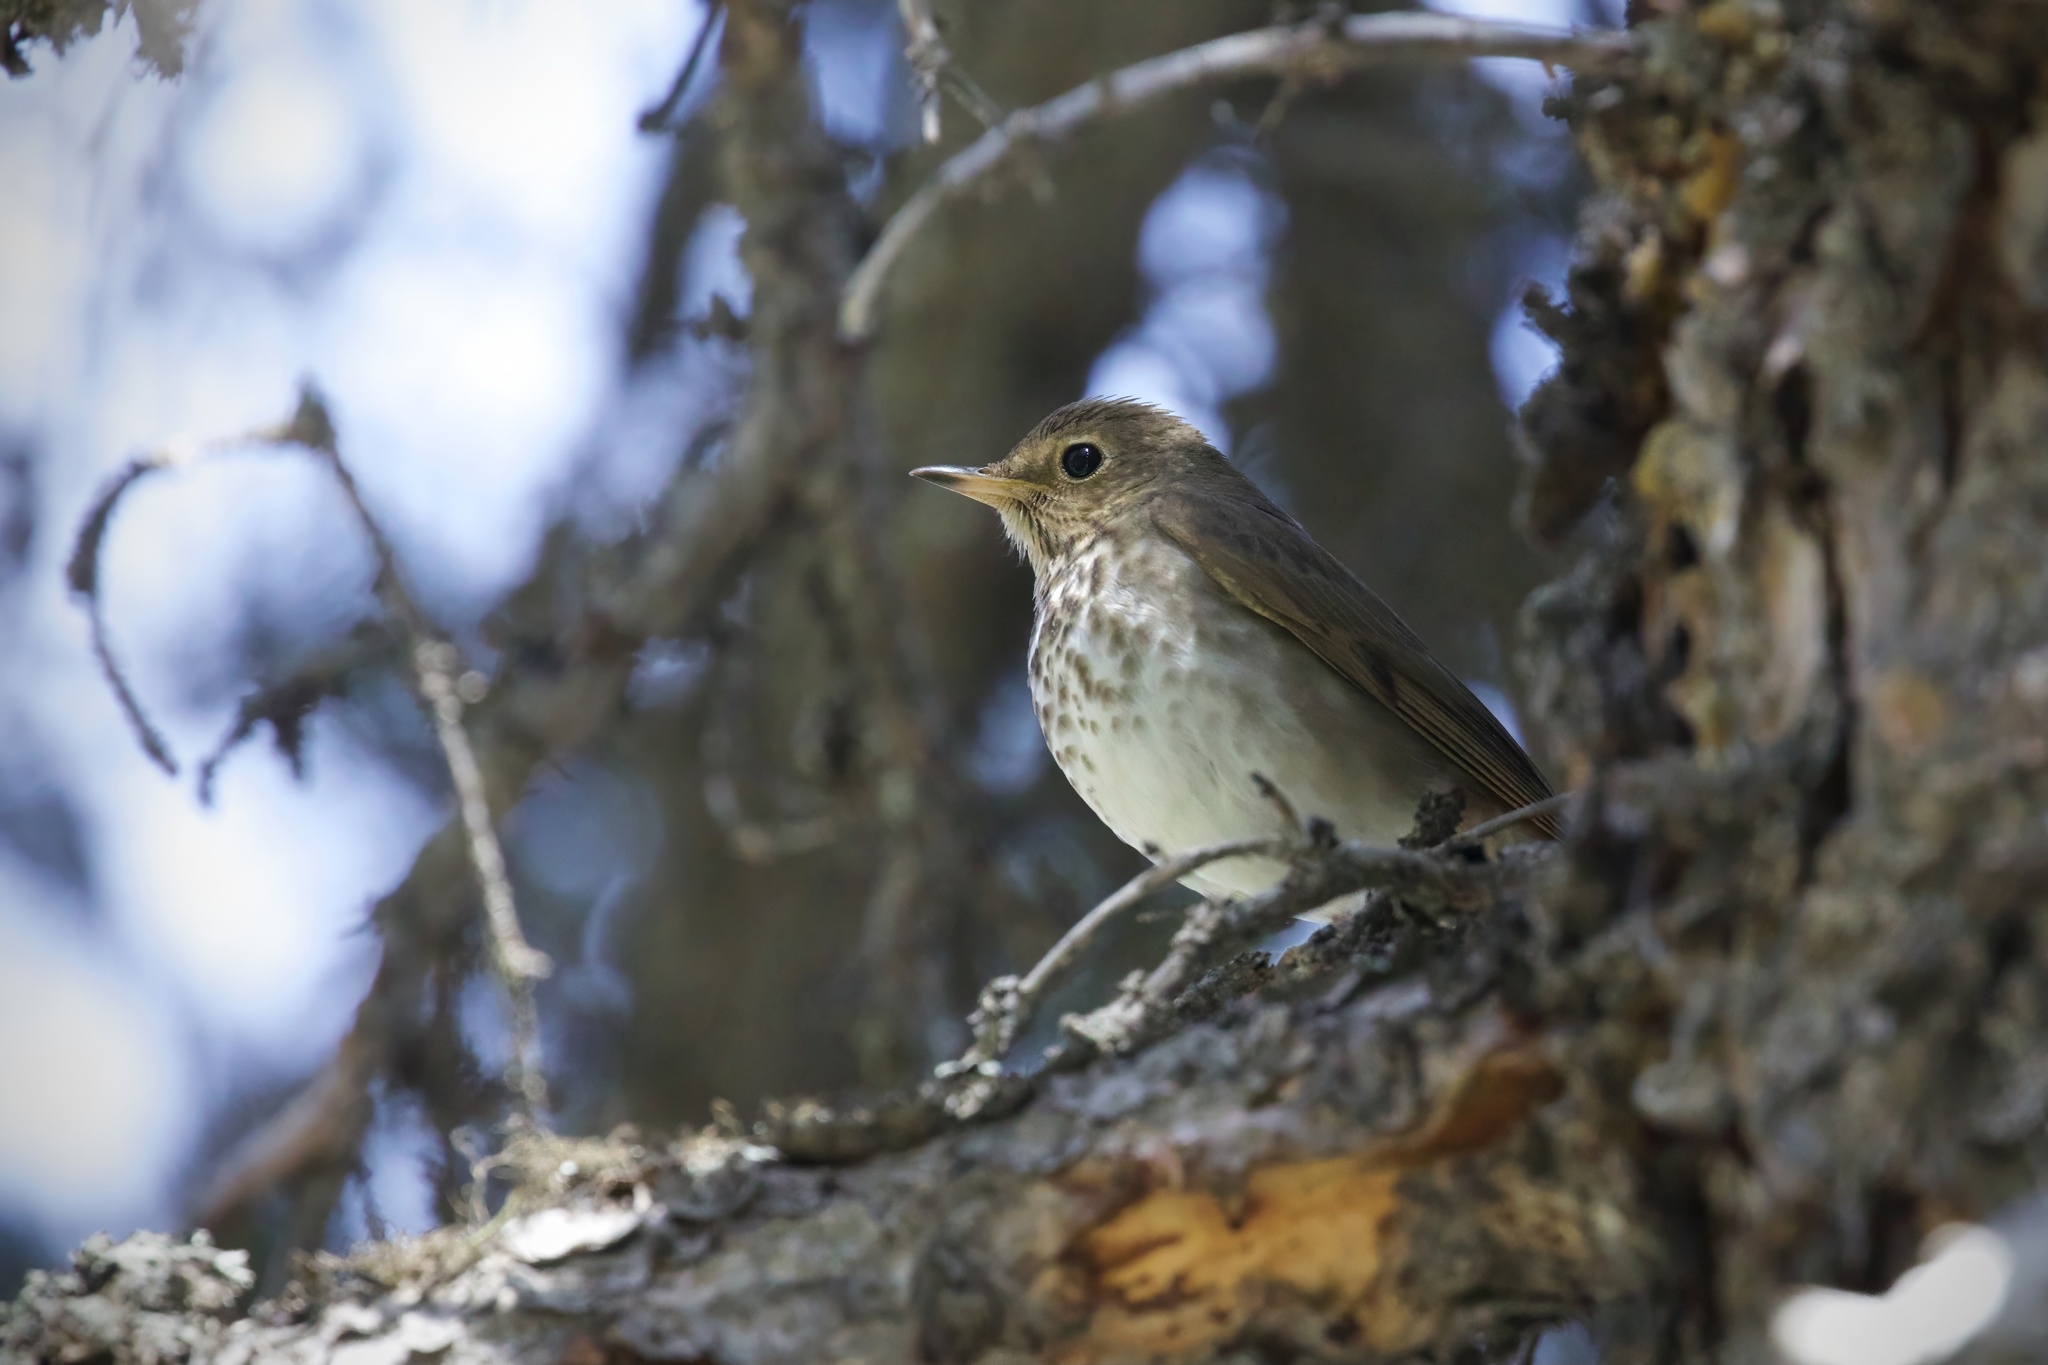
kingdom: Animalia
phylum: Chordata
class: Aves
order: Passeriformes
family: Turdidae
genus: Catharus
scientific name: Catharus ustulatus
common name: Swainson's thrush
